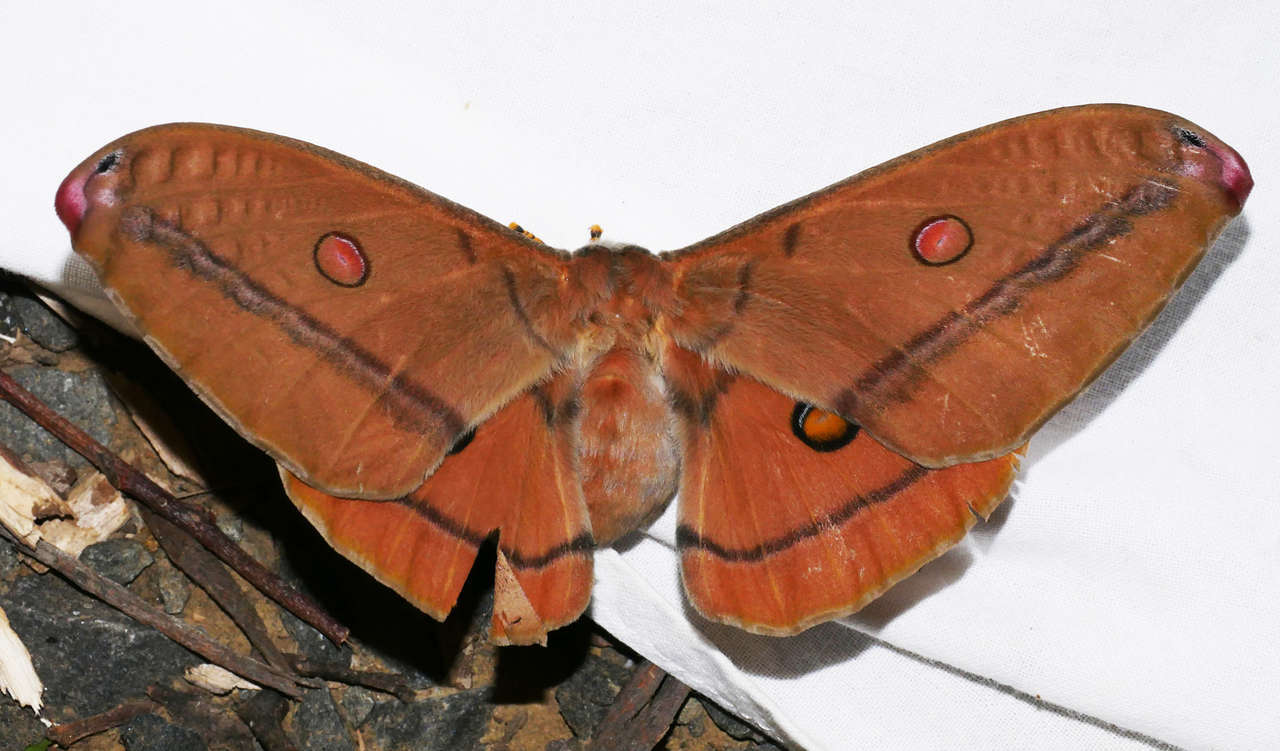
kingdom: Animalia
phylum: Arthropoda
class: Insecta
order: Lepidoptera
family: Saturniidae
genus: Opodiphthera
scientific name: Opodiphthera
